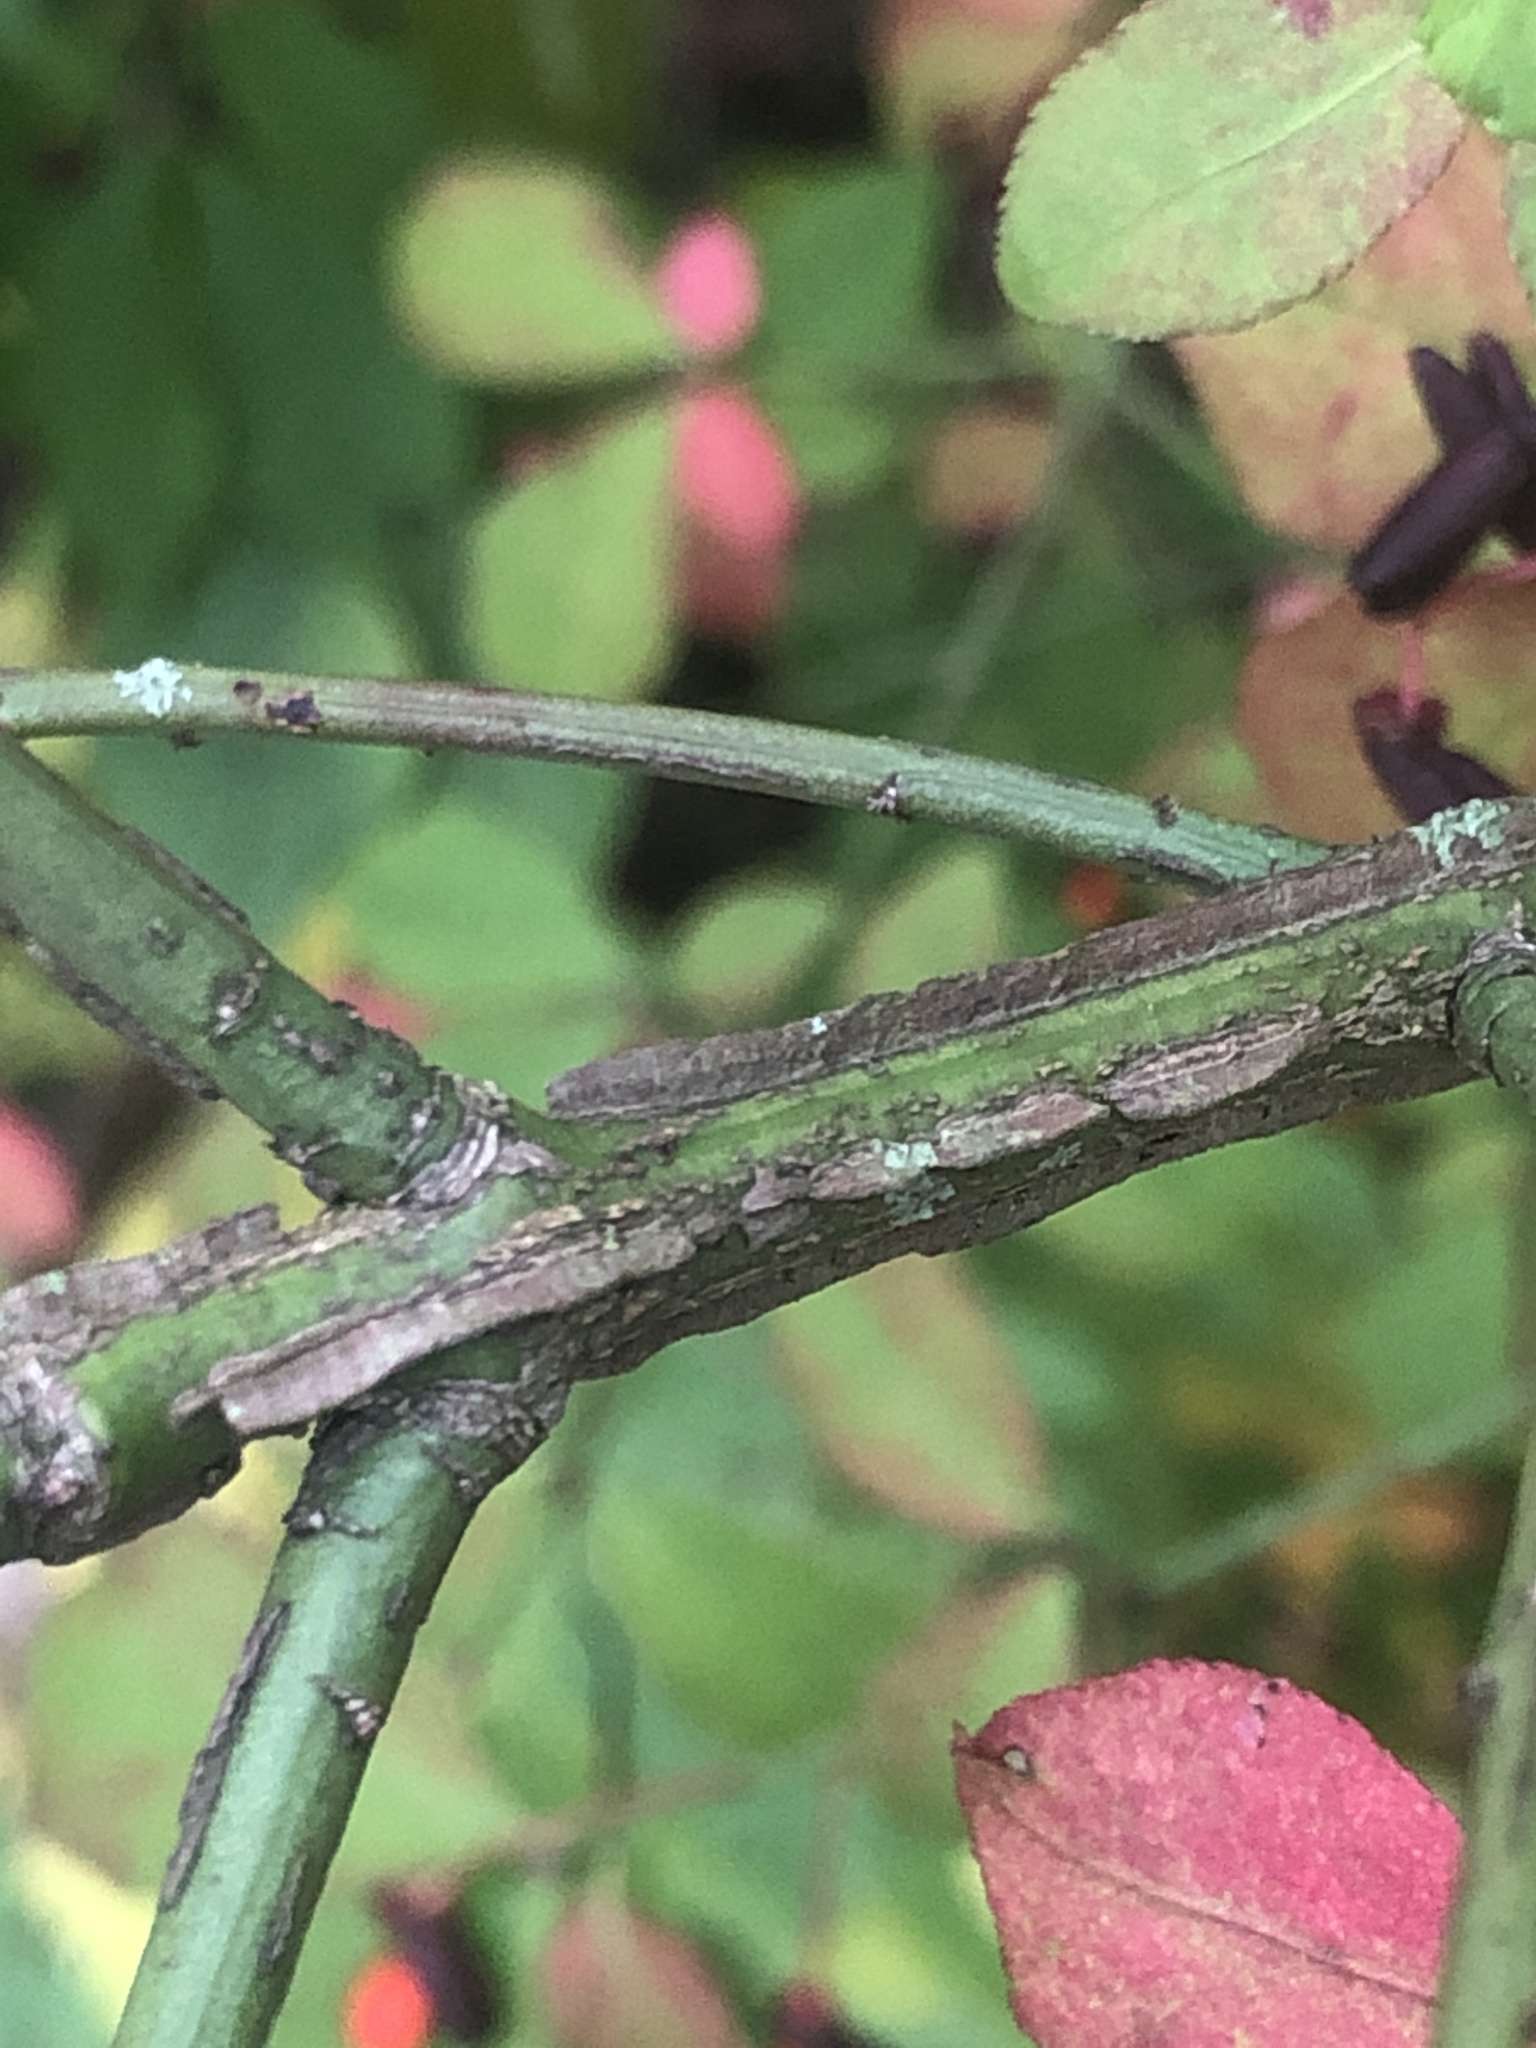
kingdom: Plantae
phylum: Tracheophyta
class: Magnoliopsida
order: Celastrales
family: Celastraceae
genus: Euonymus
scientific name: Euonymus alatus
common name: Winged euonymus
